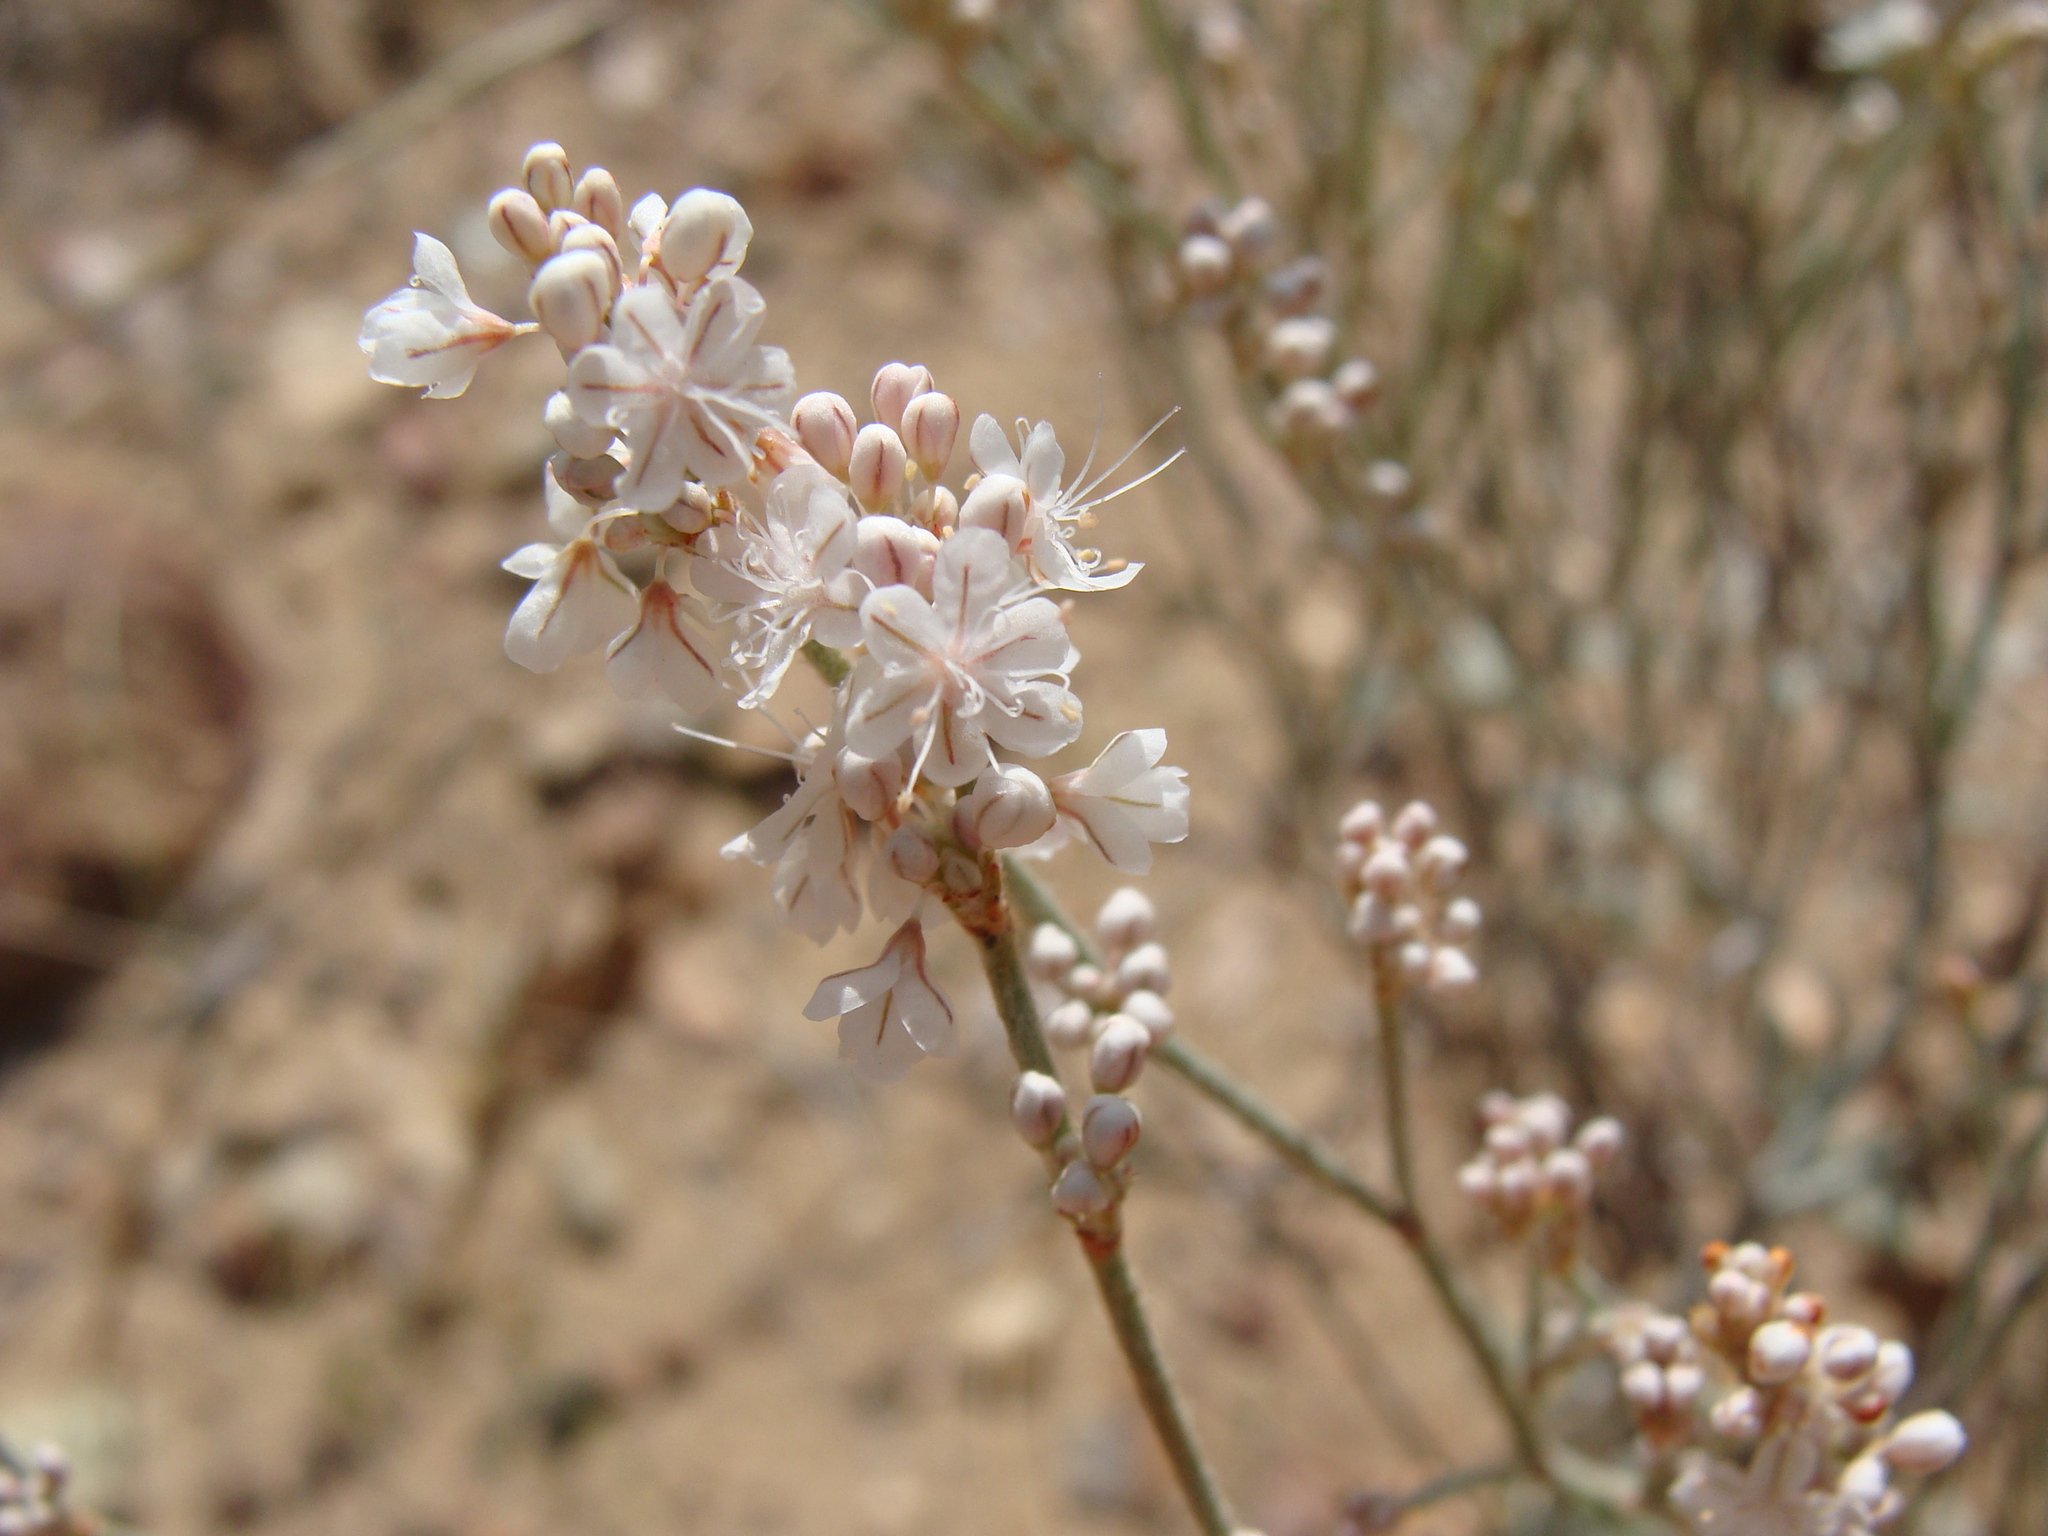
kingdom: Plantae
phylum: Tracheophyta
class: Magnoliopsida
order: Caryophyllales
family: Polygonaceae
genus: Eriogonum
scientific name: Eriogonum wrightii
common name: Bastard-sage
